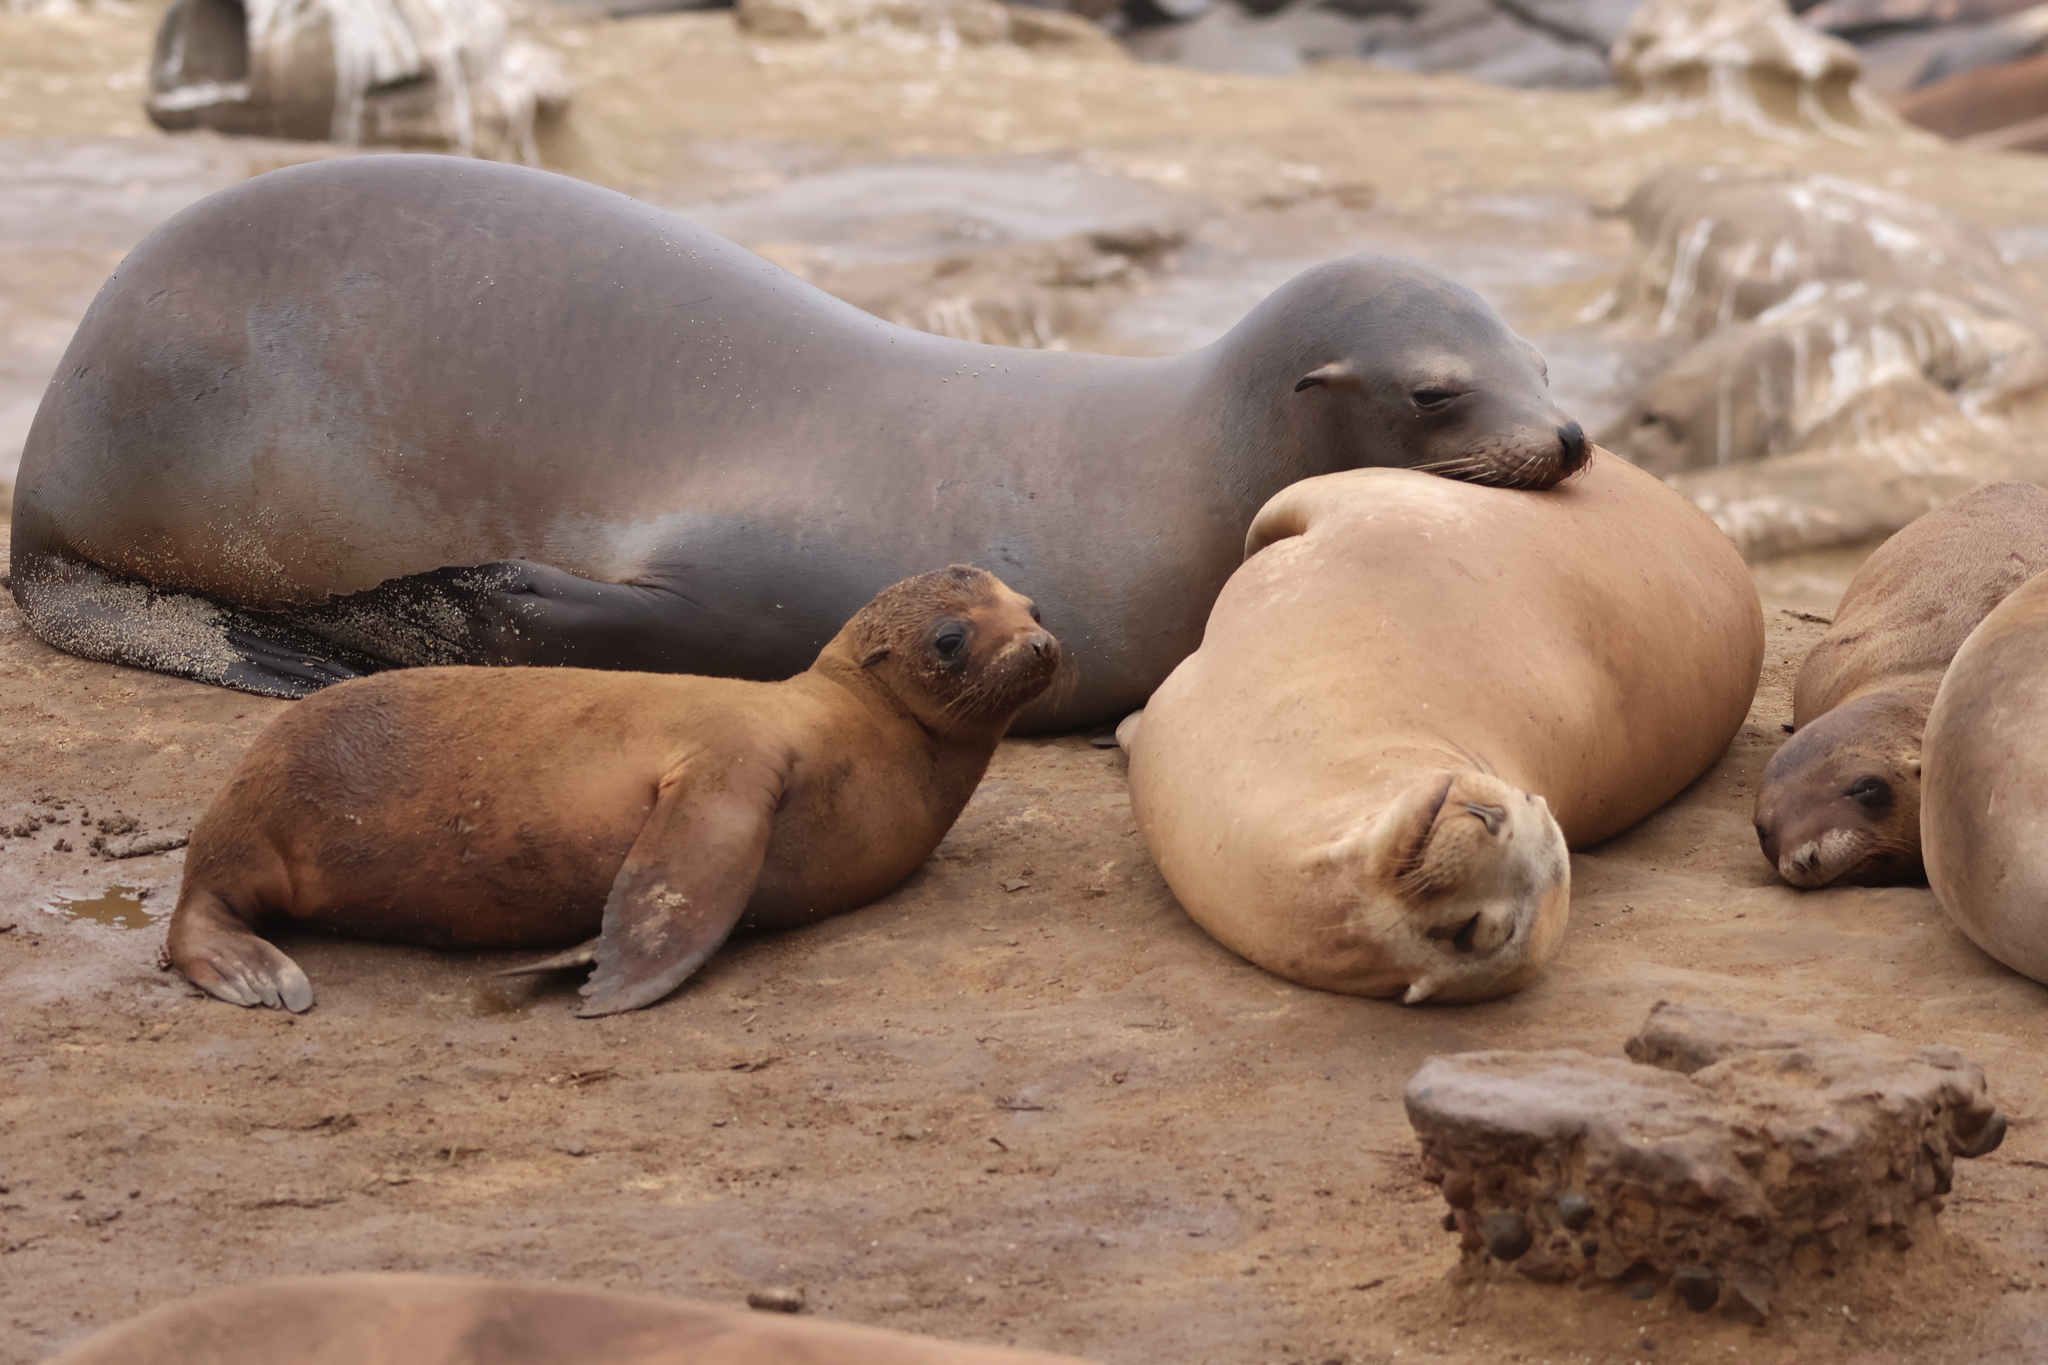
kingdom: Animalia
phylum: Chordata
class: Mammalia
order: Carnivora
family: Otariidae
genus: Zalophus
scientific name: Zalophus californianus
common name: California sea lion
